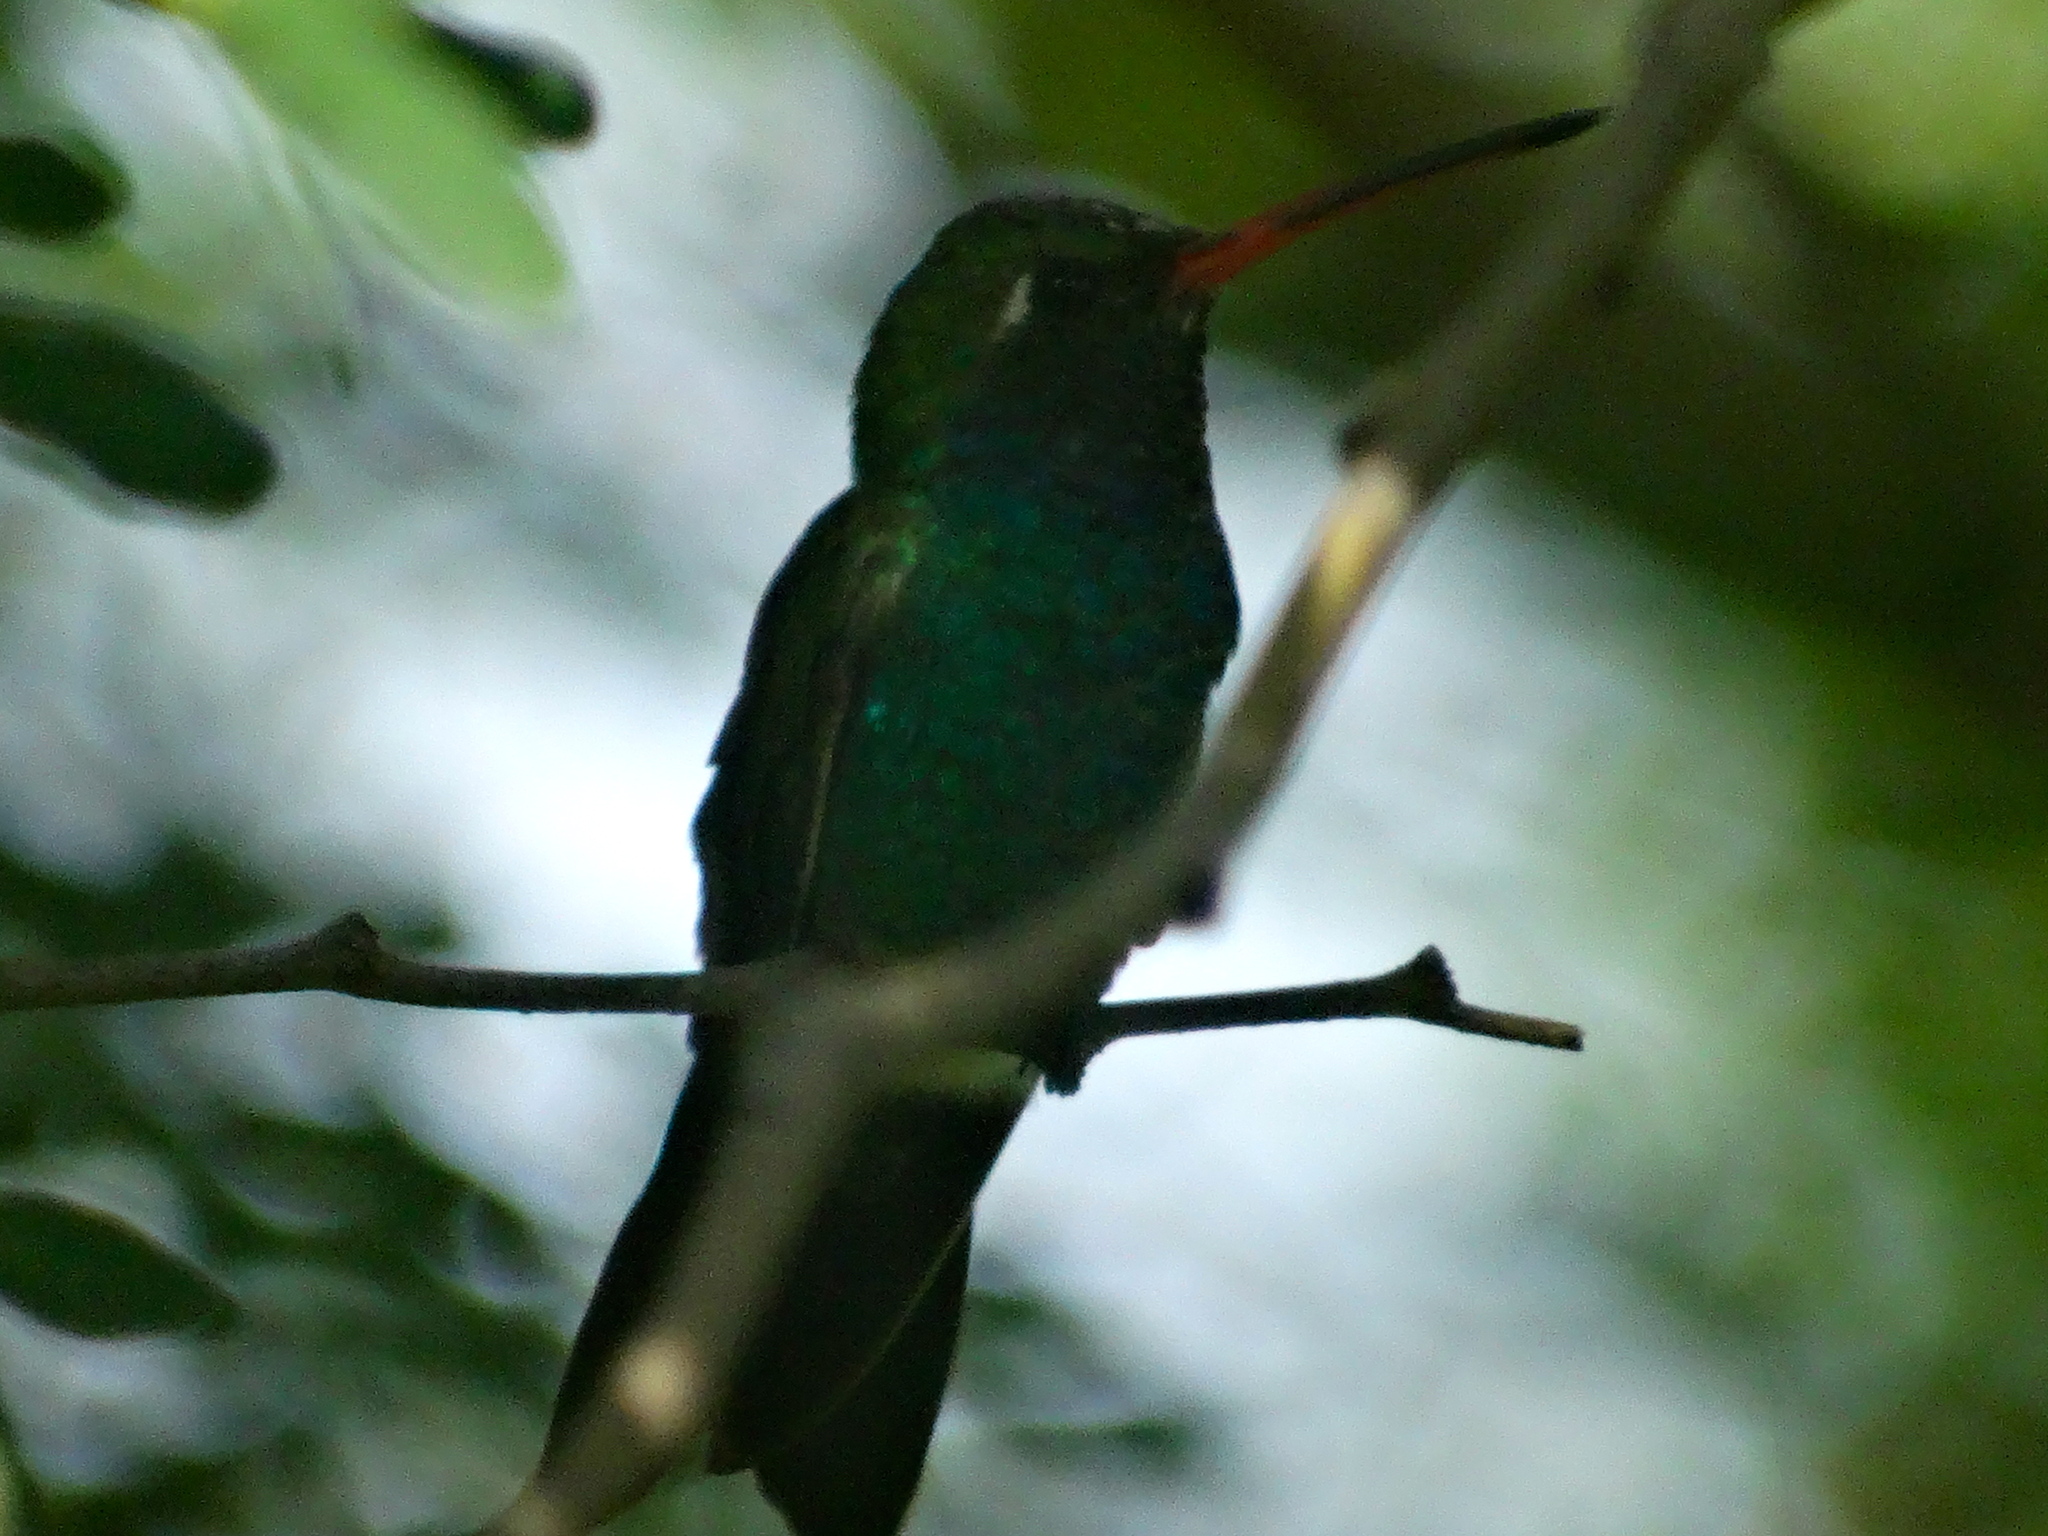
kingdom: Animalia
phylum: Chordata
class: Aves
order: Apodiformes
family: Trochilidae
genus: Cynanthus
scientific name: Cynanthus latirostris
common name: Broad-billed hummingbird
